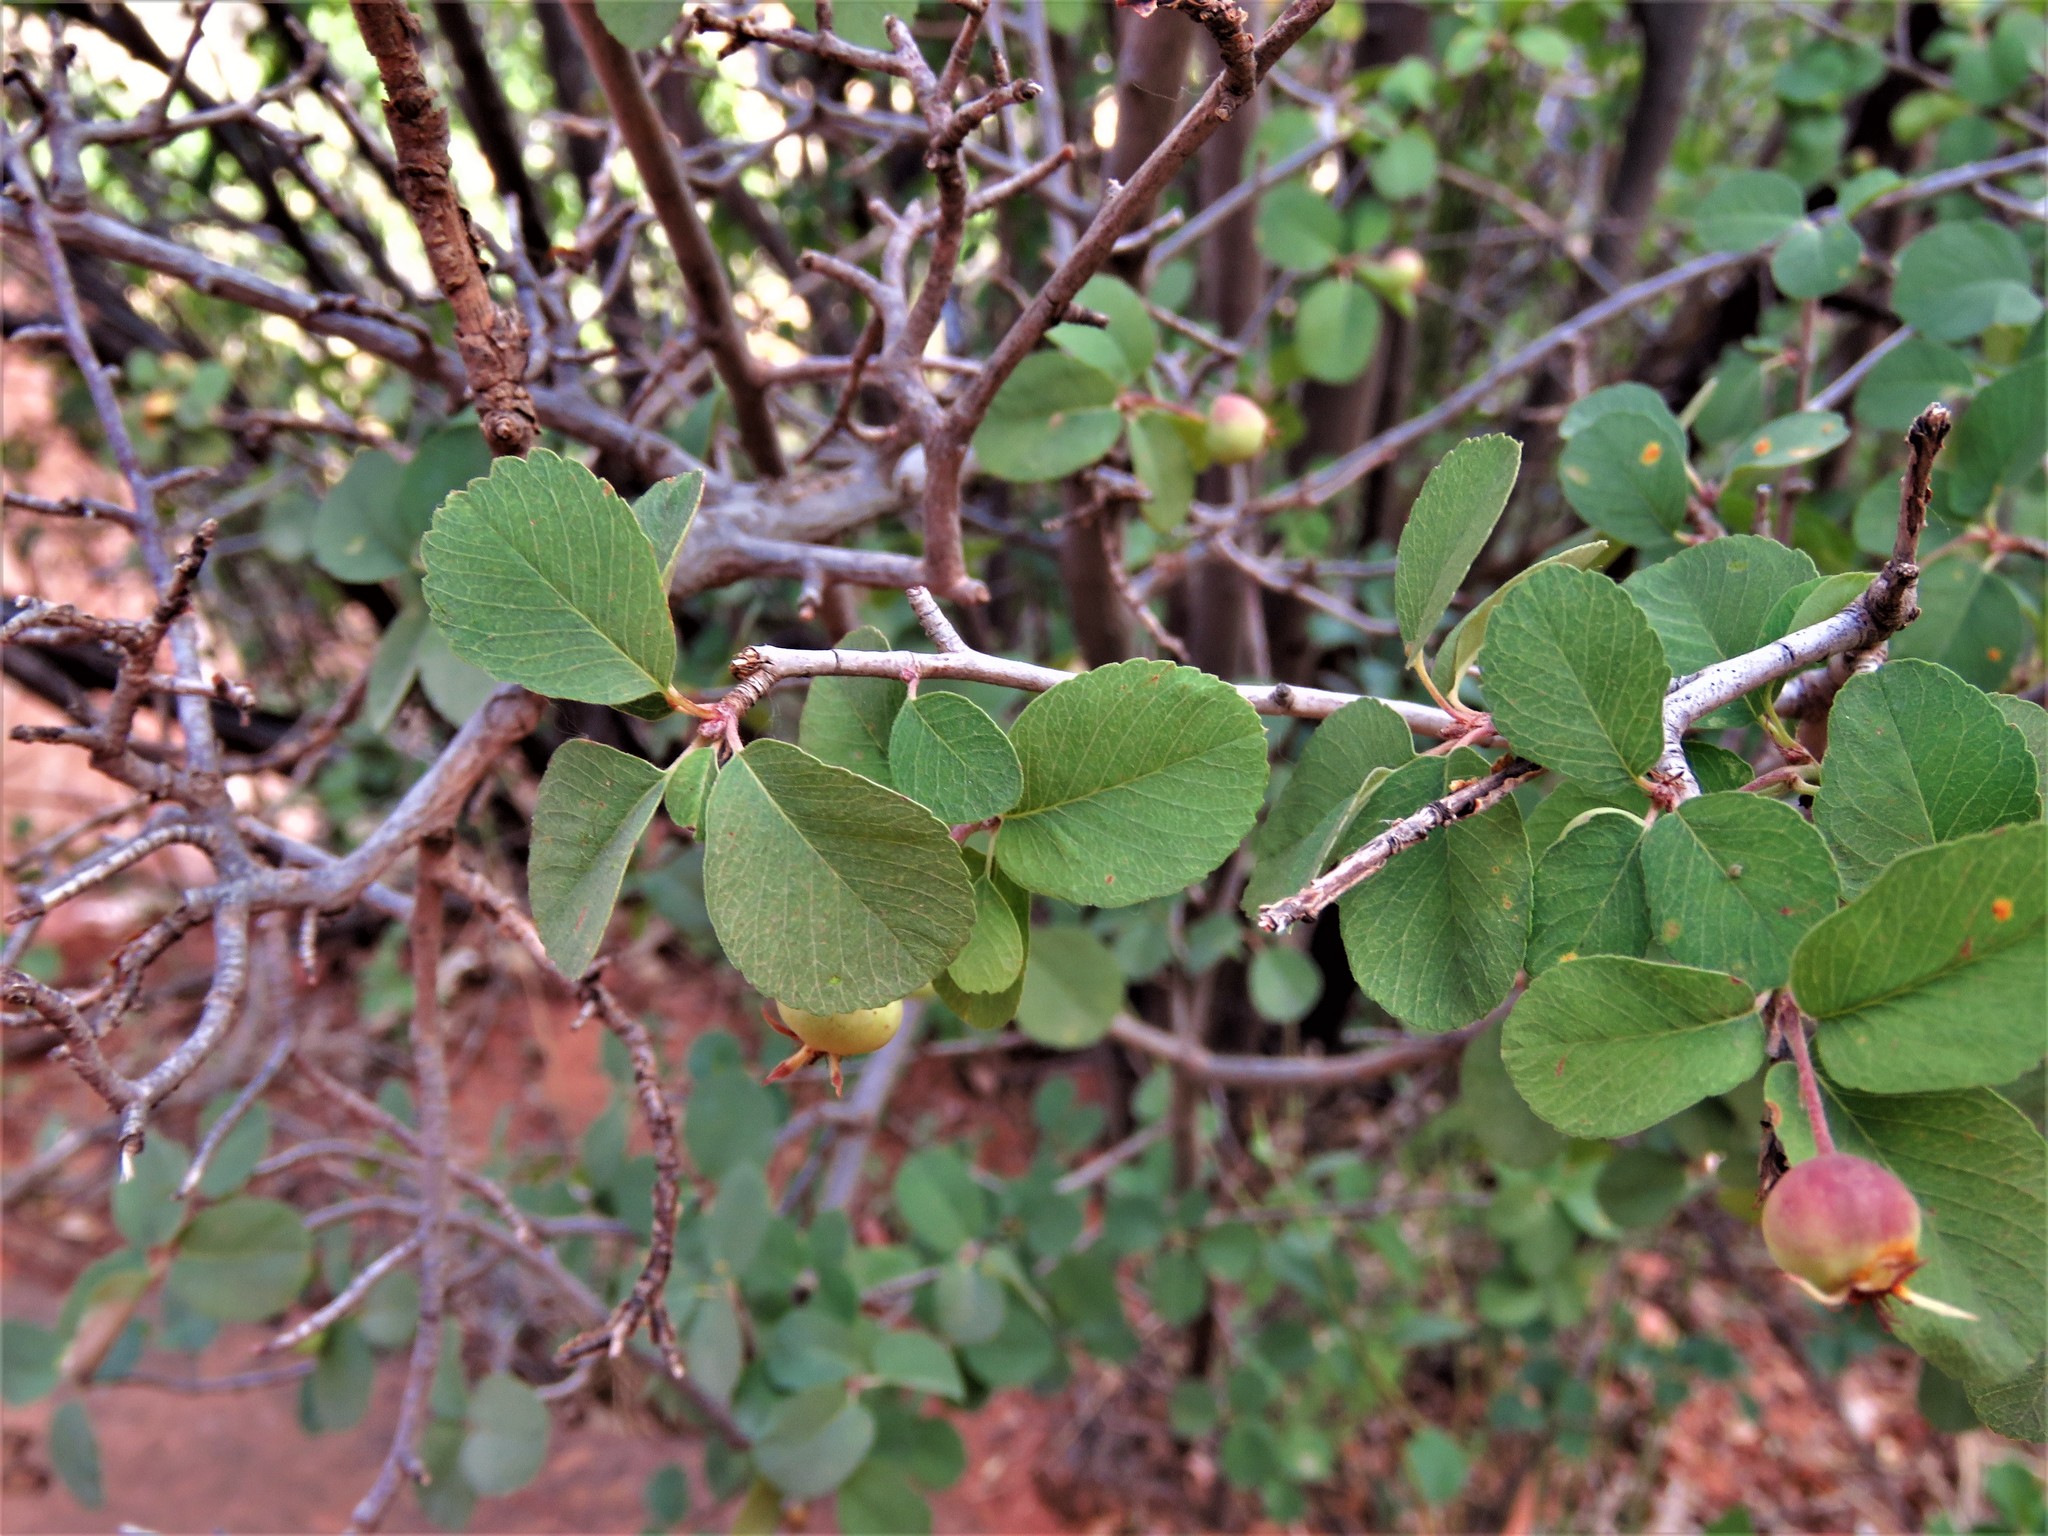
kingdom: Plantae
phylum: Tracheophyta
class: Magnoliopsida
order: Rosales
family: Rosaceae
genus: Amelanchier
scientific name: Amelanchier utahensis
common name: Utah serviceberry
